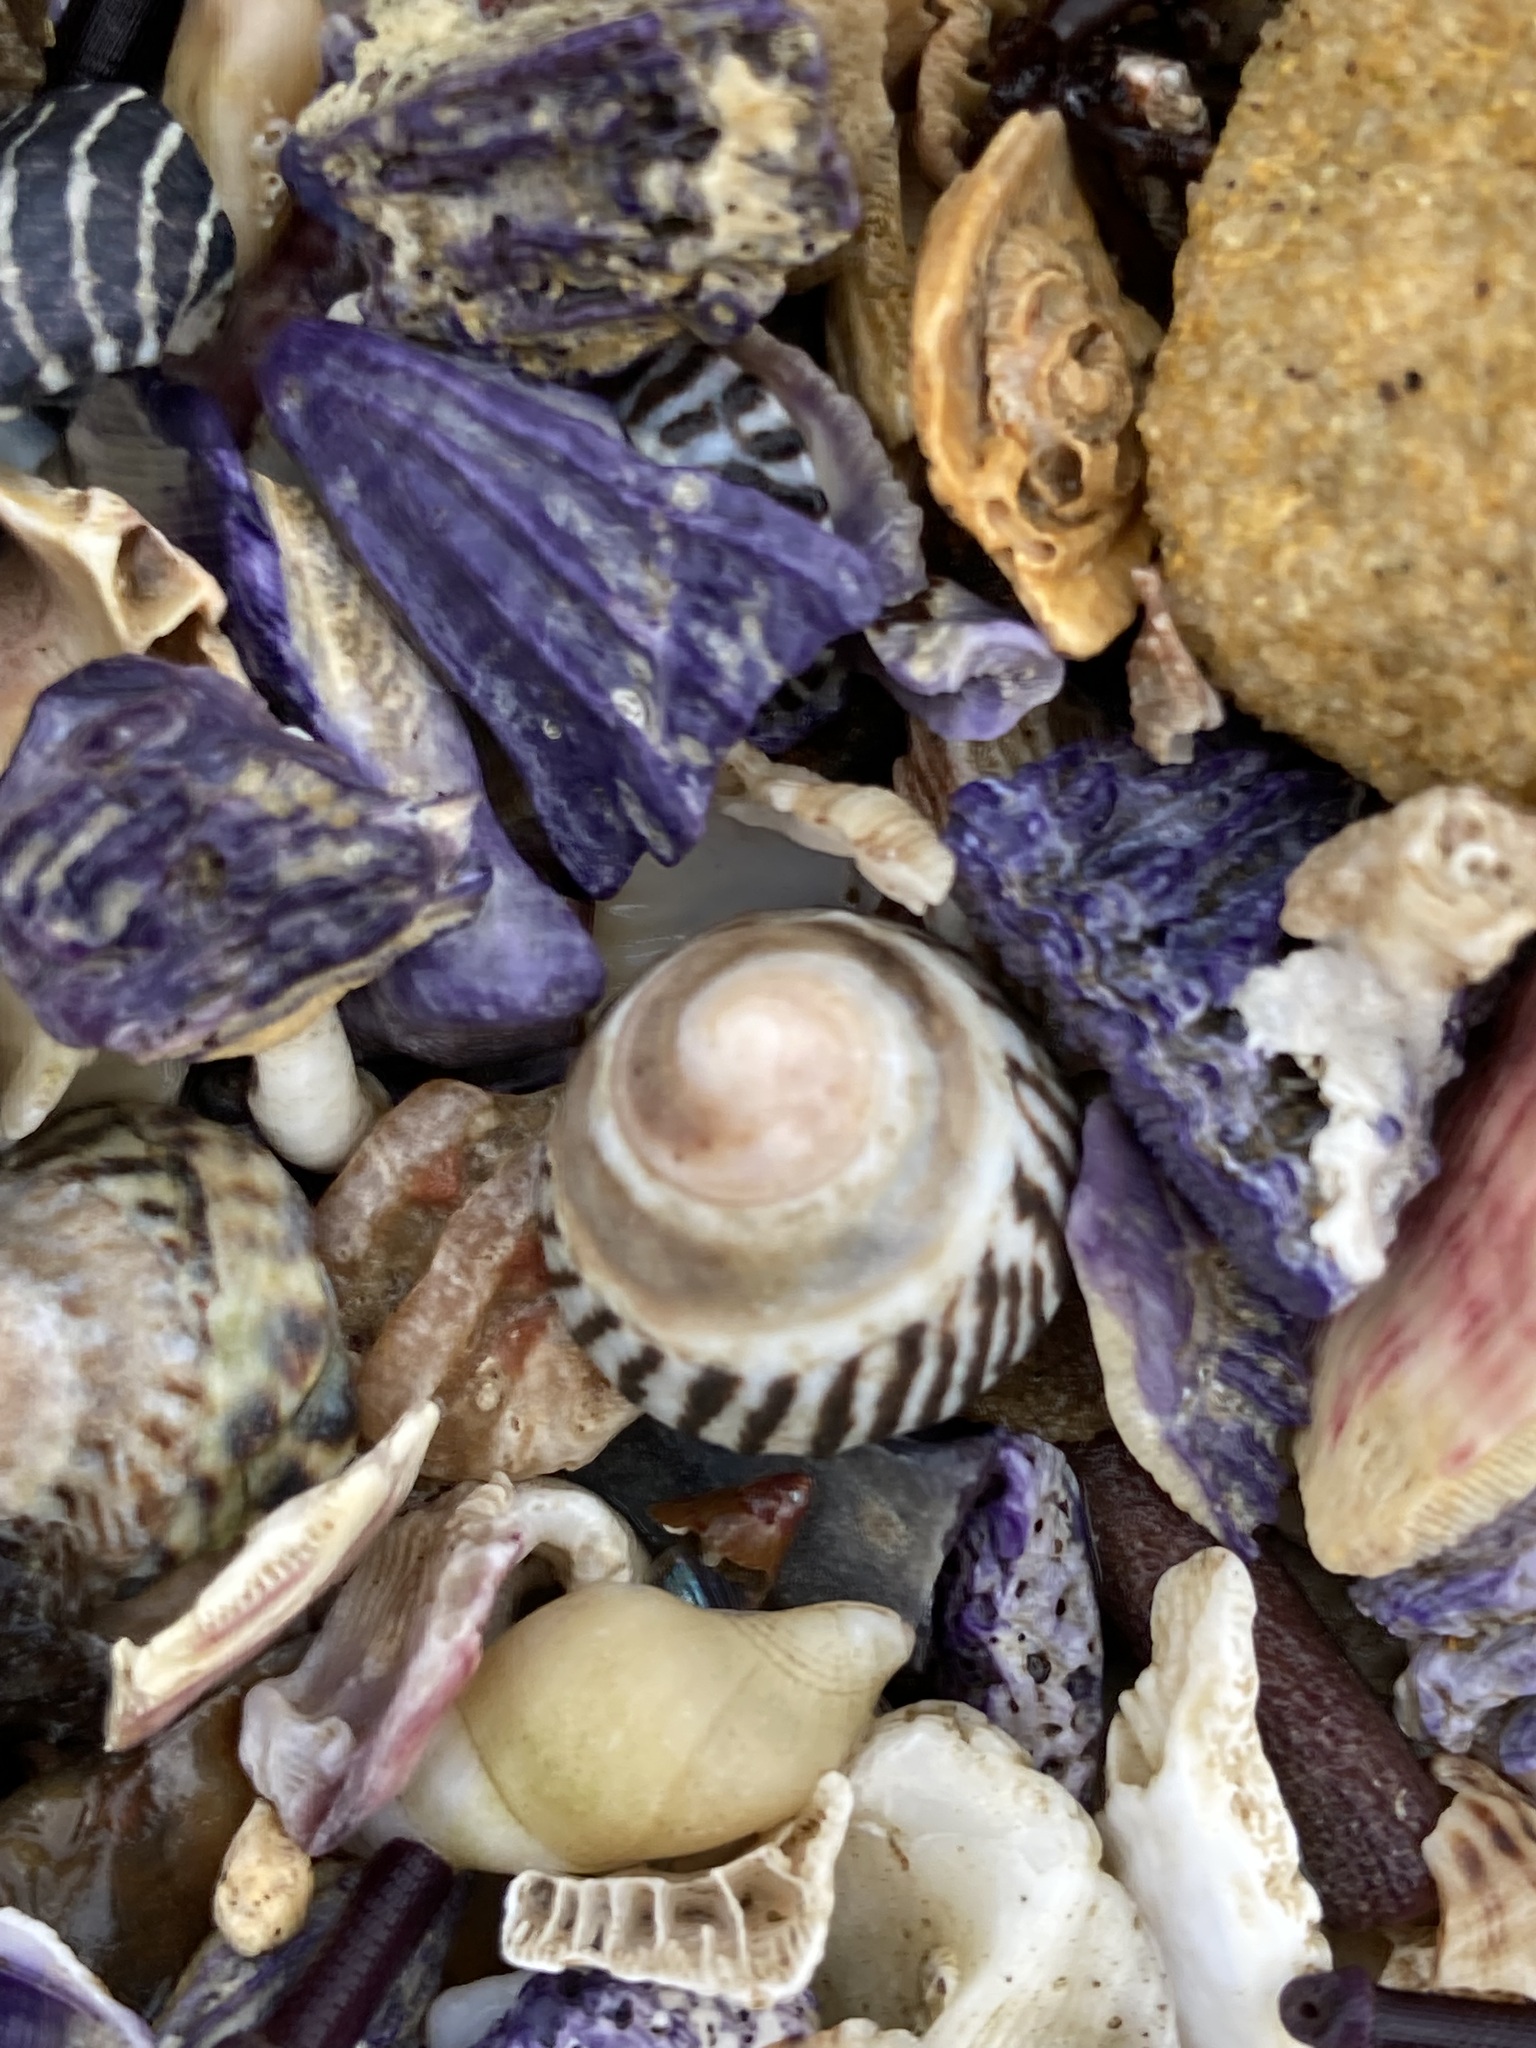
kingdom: Animalia
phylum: Mollusca
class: Gastropoda
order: Littorinimorpha
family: Littorinidae
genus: Bembicium
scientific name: Bembicium nanum
